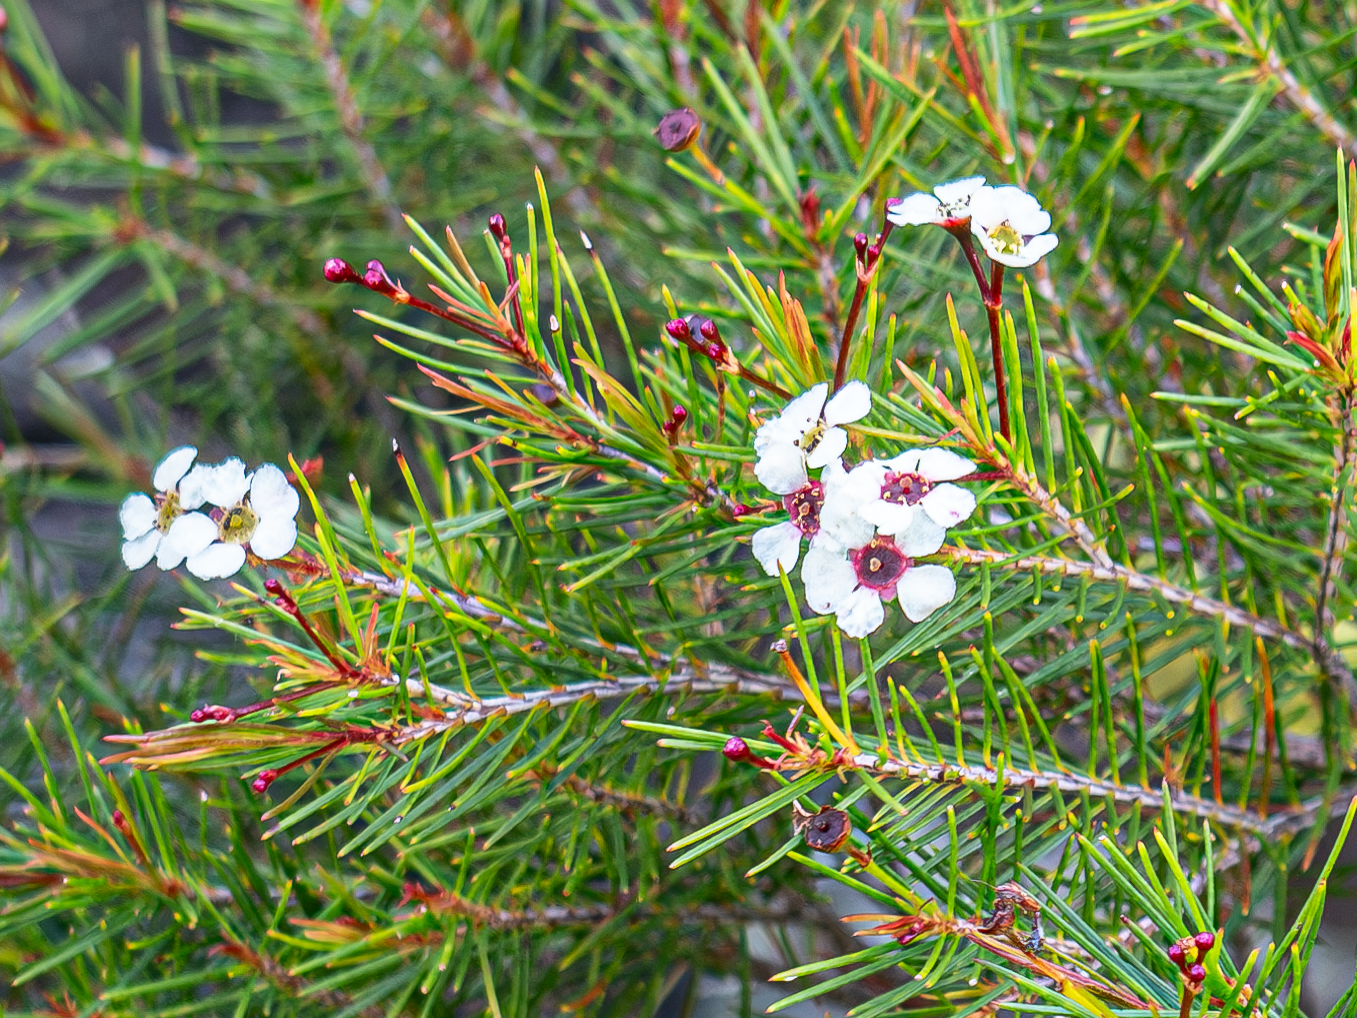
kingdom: Plantae
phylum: Tracheophyta
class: Magnoliopsida
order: Myrtales
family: Myrtaceae
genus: Sannantha
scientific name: Sannantha pinifolia
